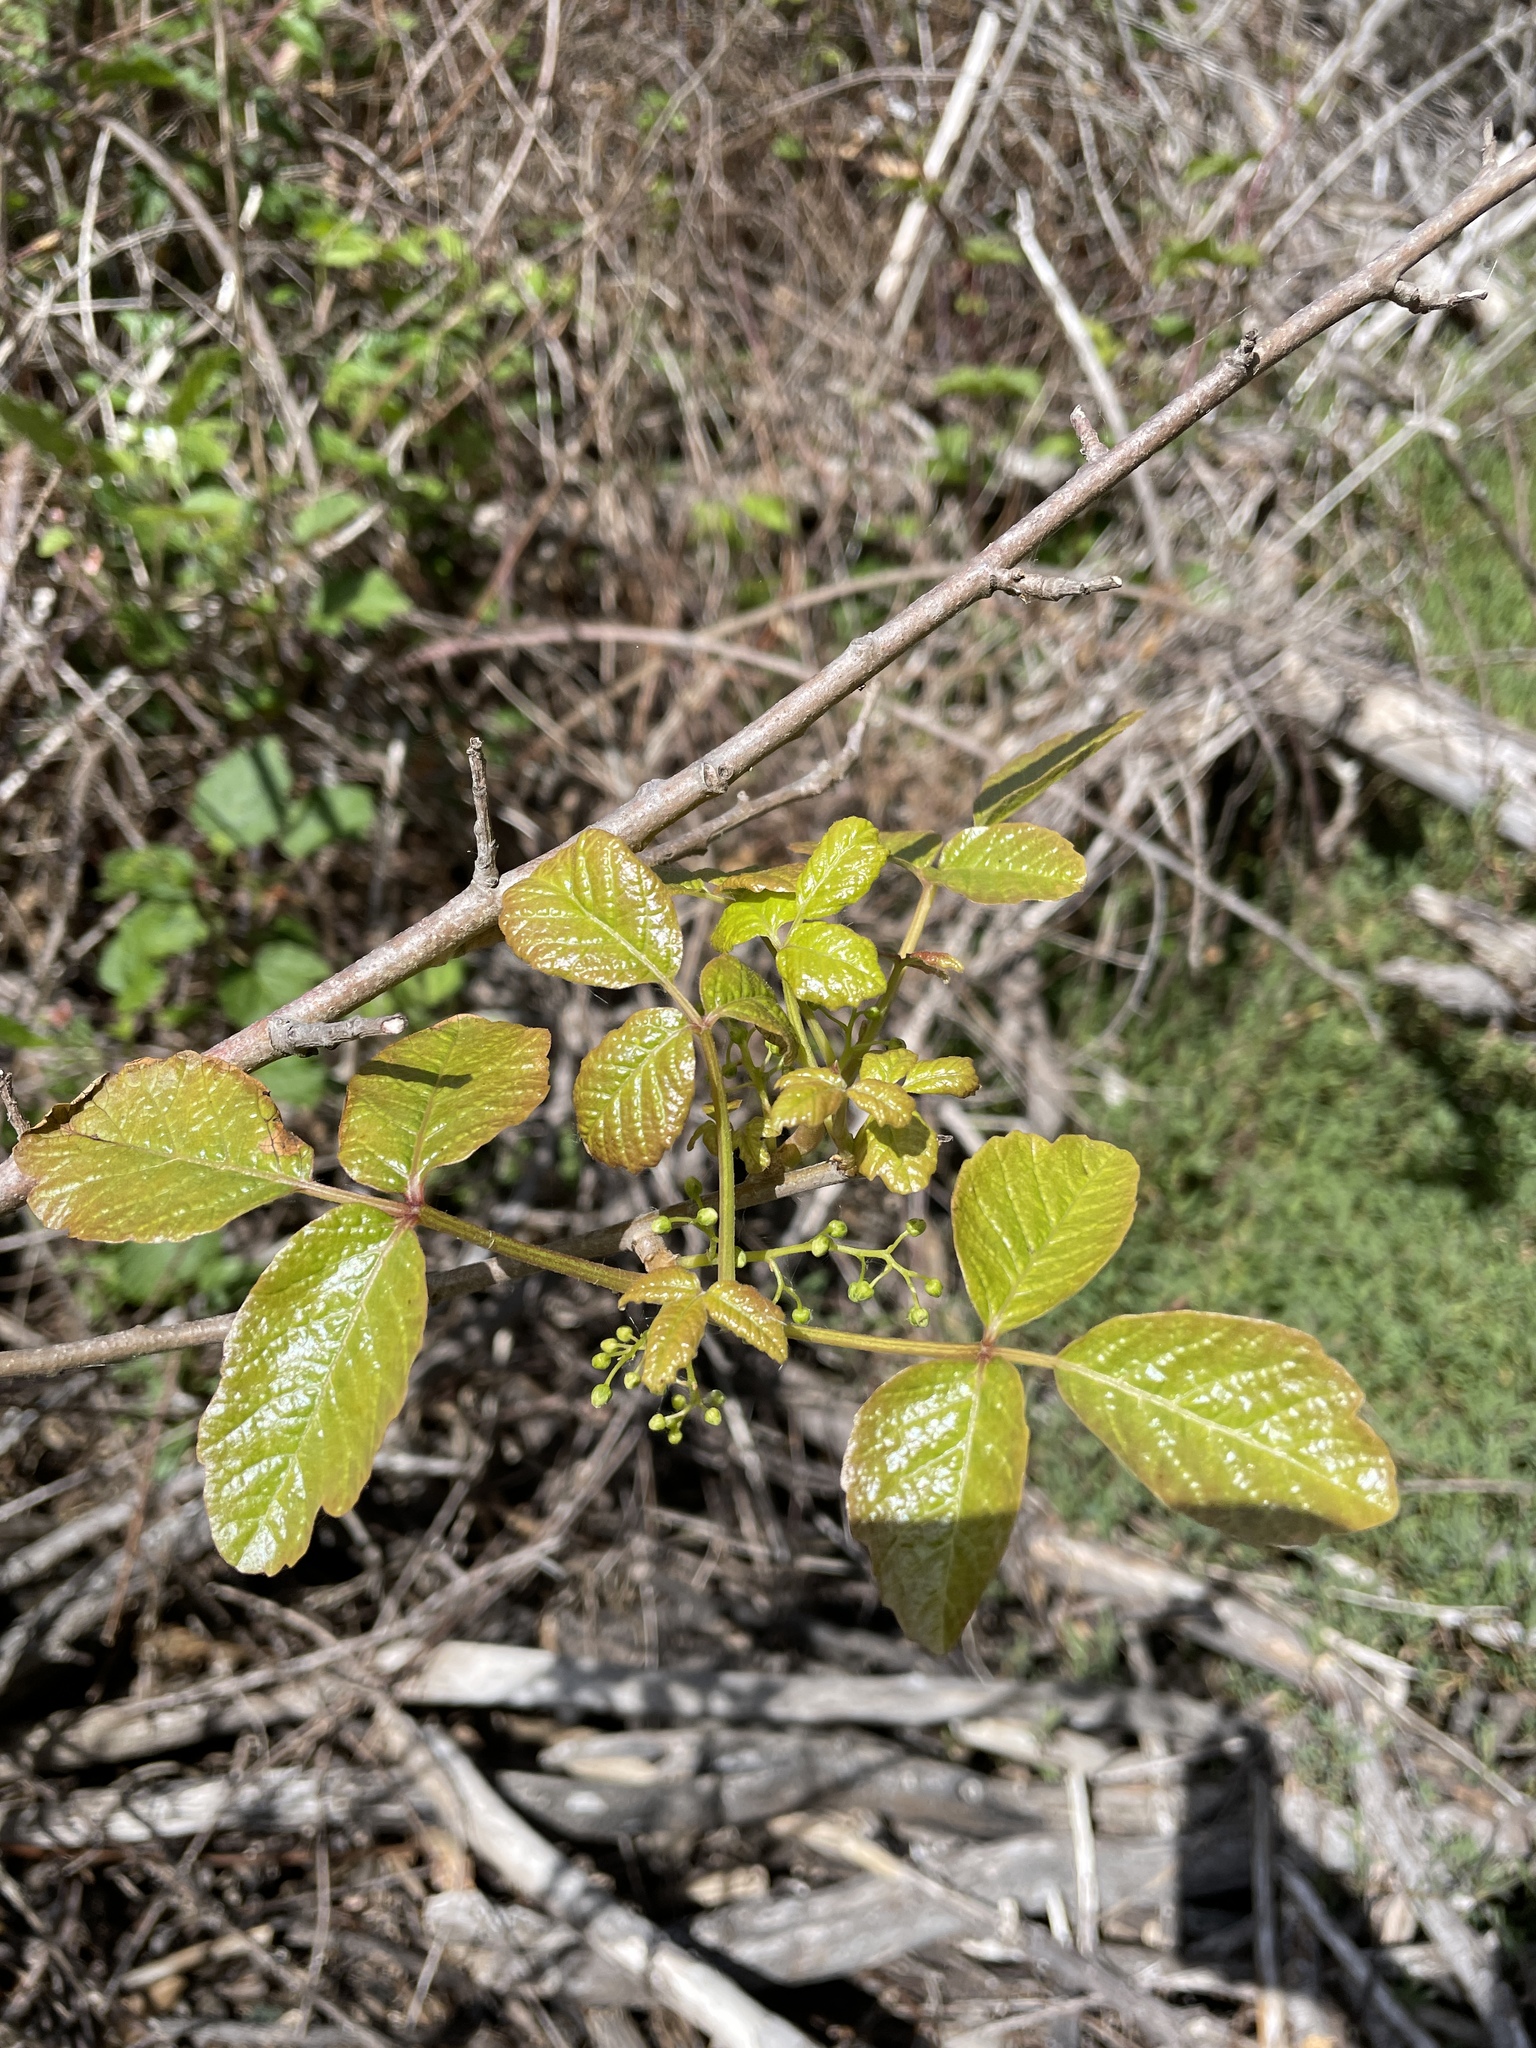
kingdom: Plantae
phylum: Tracheophyta
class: Magnoliopsida
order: Sapindales
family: Anacardiaceae
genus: Toxicodendron
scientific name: Toxicodendron diversilobum
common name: Pacific poison-oak
